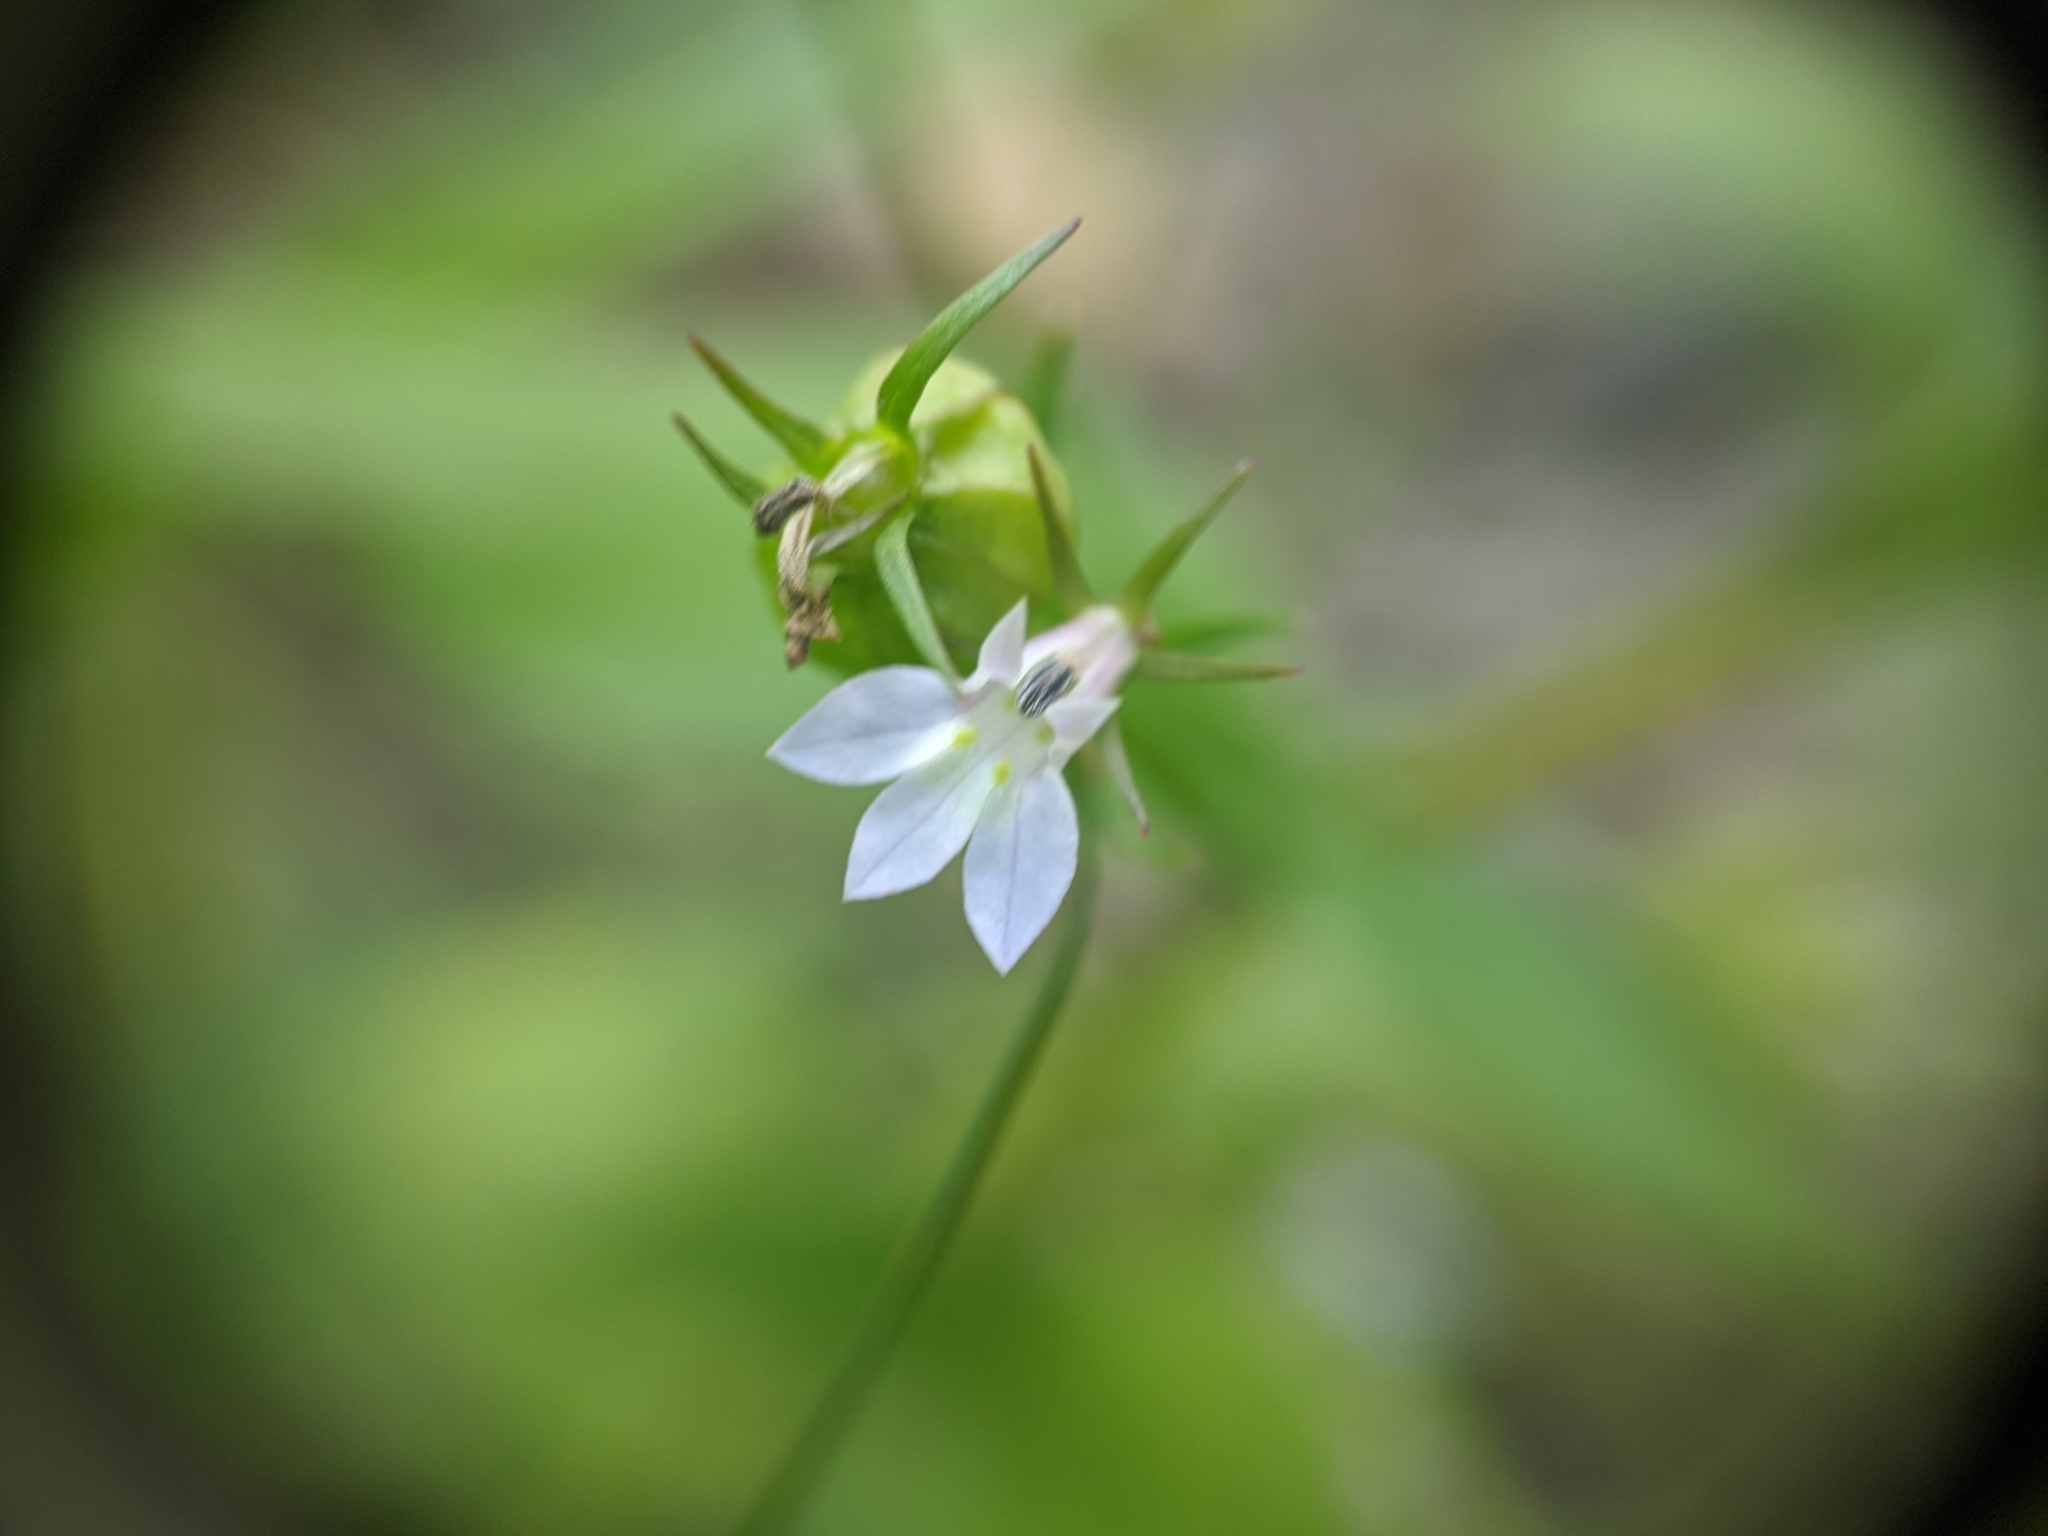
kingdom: Plantae
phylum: Tracheophyta
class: Magnoliopsida
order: Asterales
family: Campanulaceae
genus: Lobelia
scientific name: Lobelia inflata
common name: Indian tobacco
